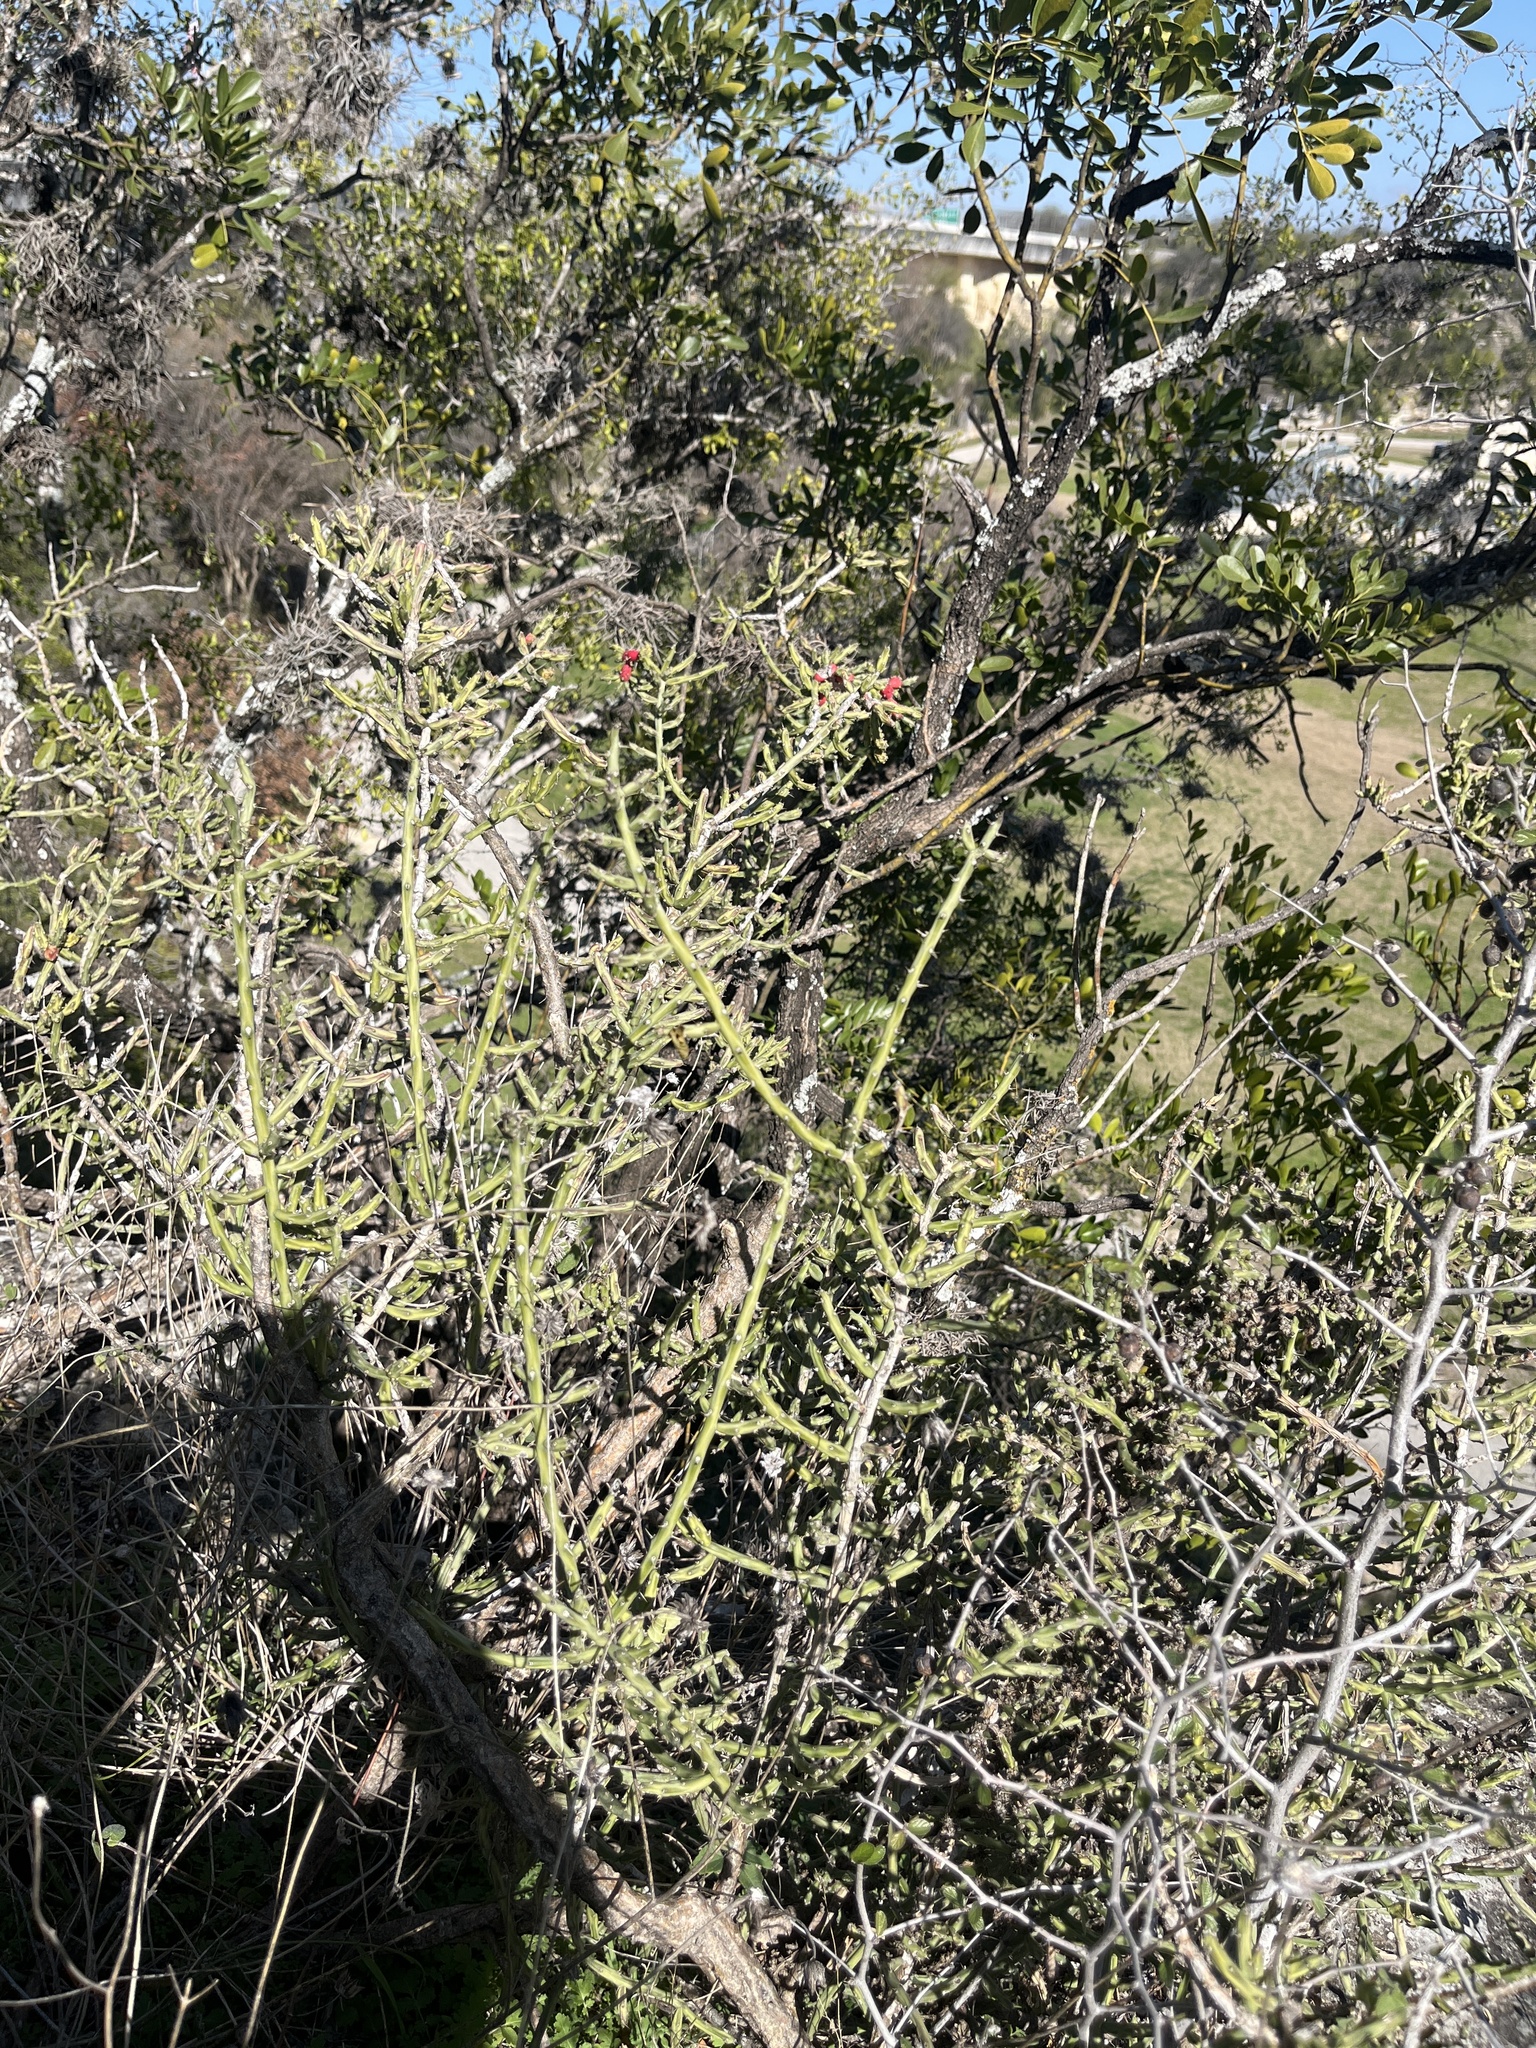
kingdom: Plantae
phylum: Tracheophyta
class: Magnoliopsida
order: Caryophyllales
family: Cactaceae
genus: Cylindropuntia
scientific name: Cylindropuntia leptocaulis
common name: Christmas cactus
